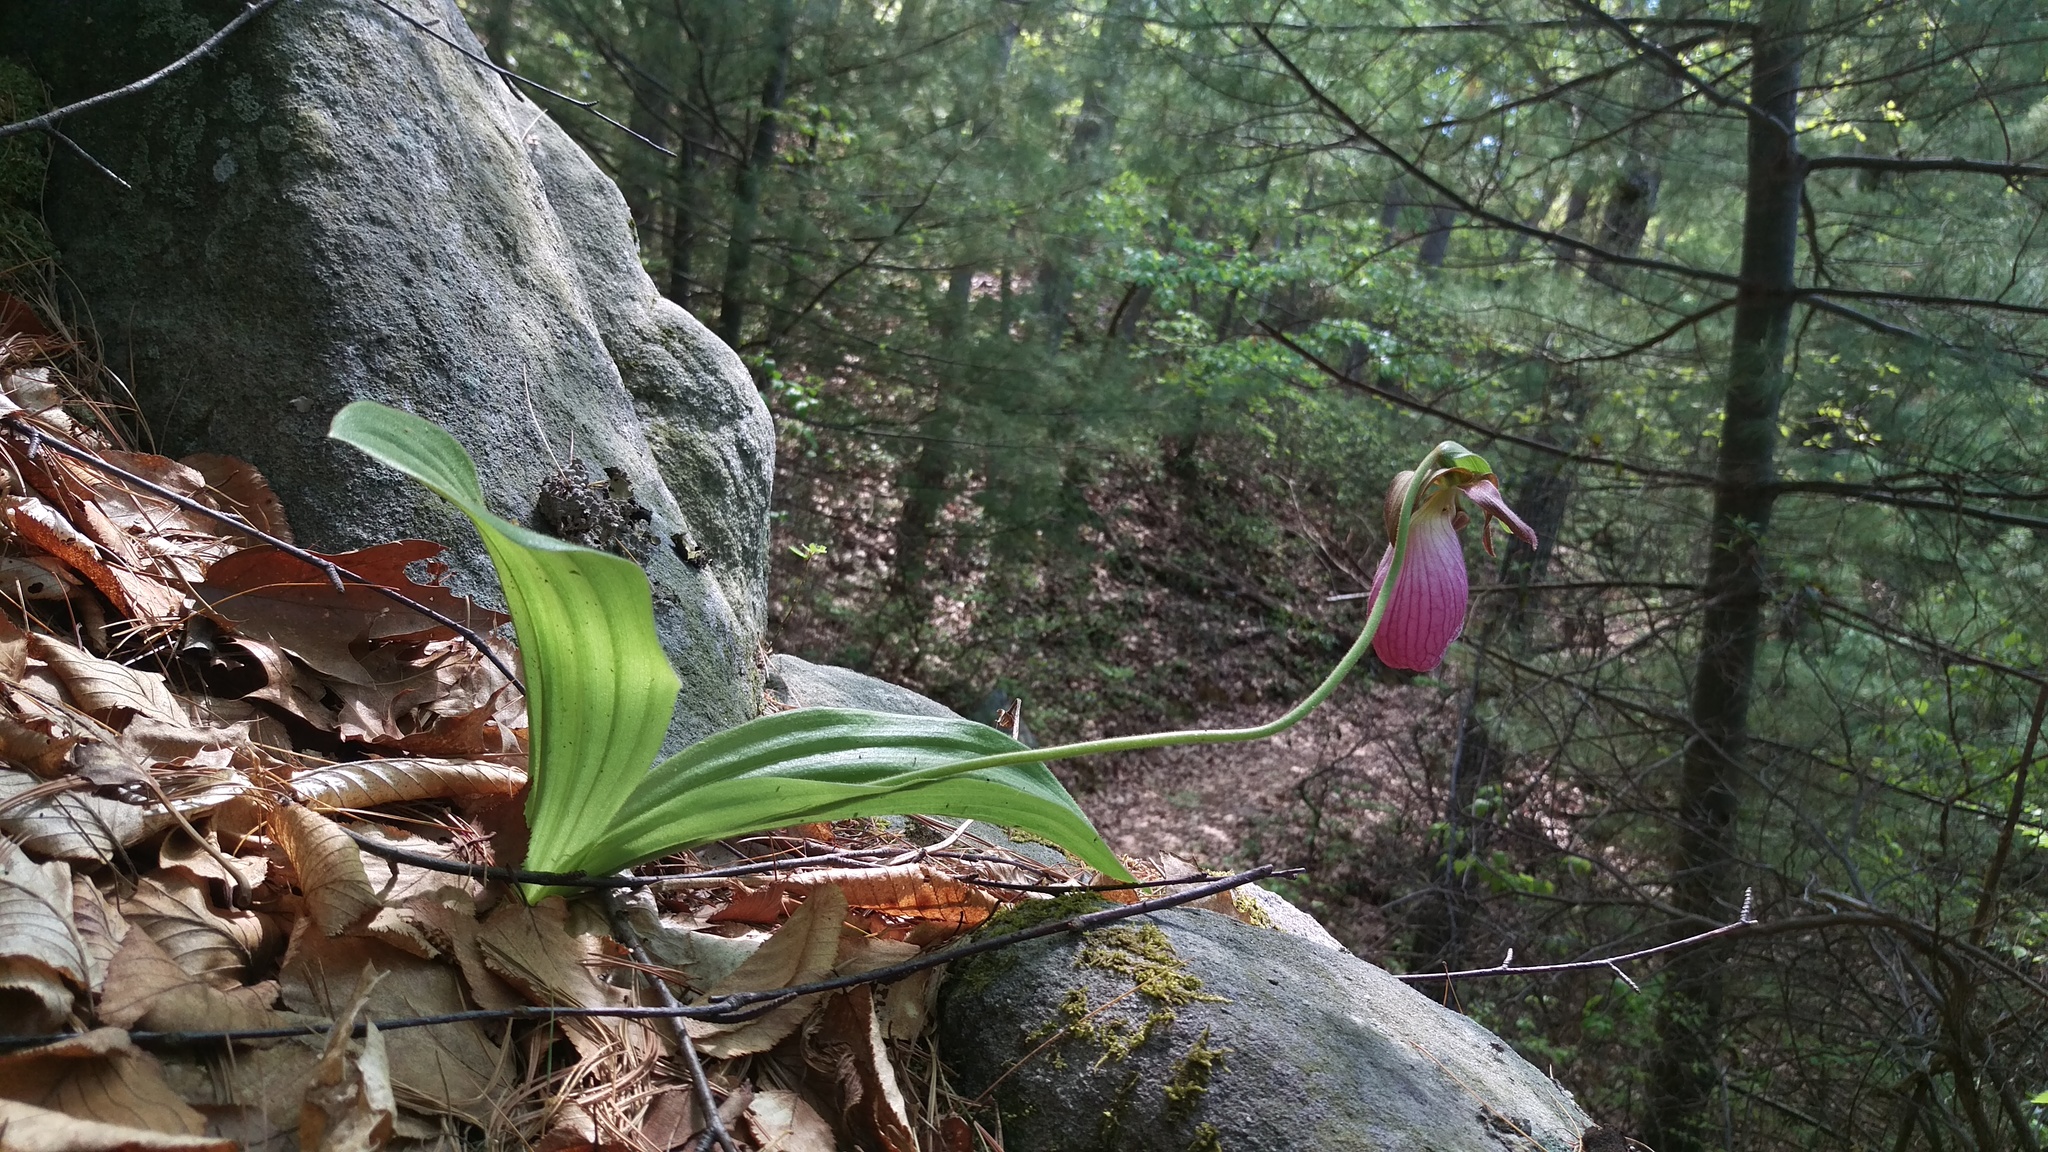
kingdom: Plantae
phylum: Tracheophyta
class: Liliopsida
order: Asparagales
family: Orchidaceae
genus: Cypripedium
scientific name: Cypripedium acaule
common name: Pink lady's-slipper
